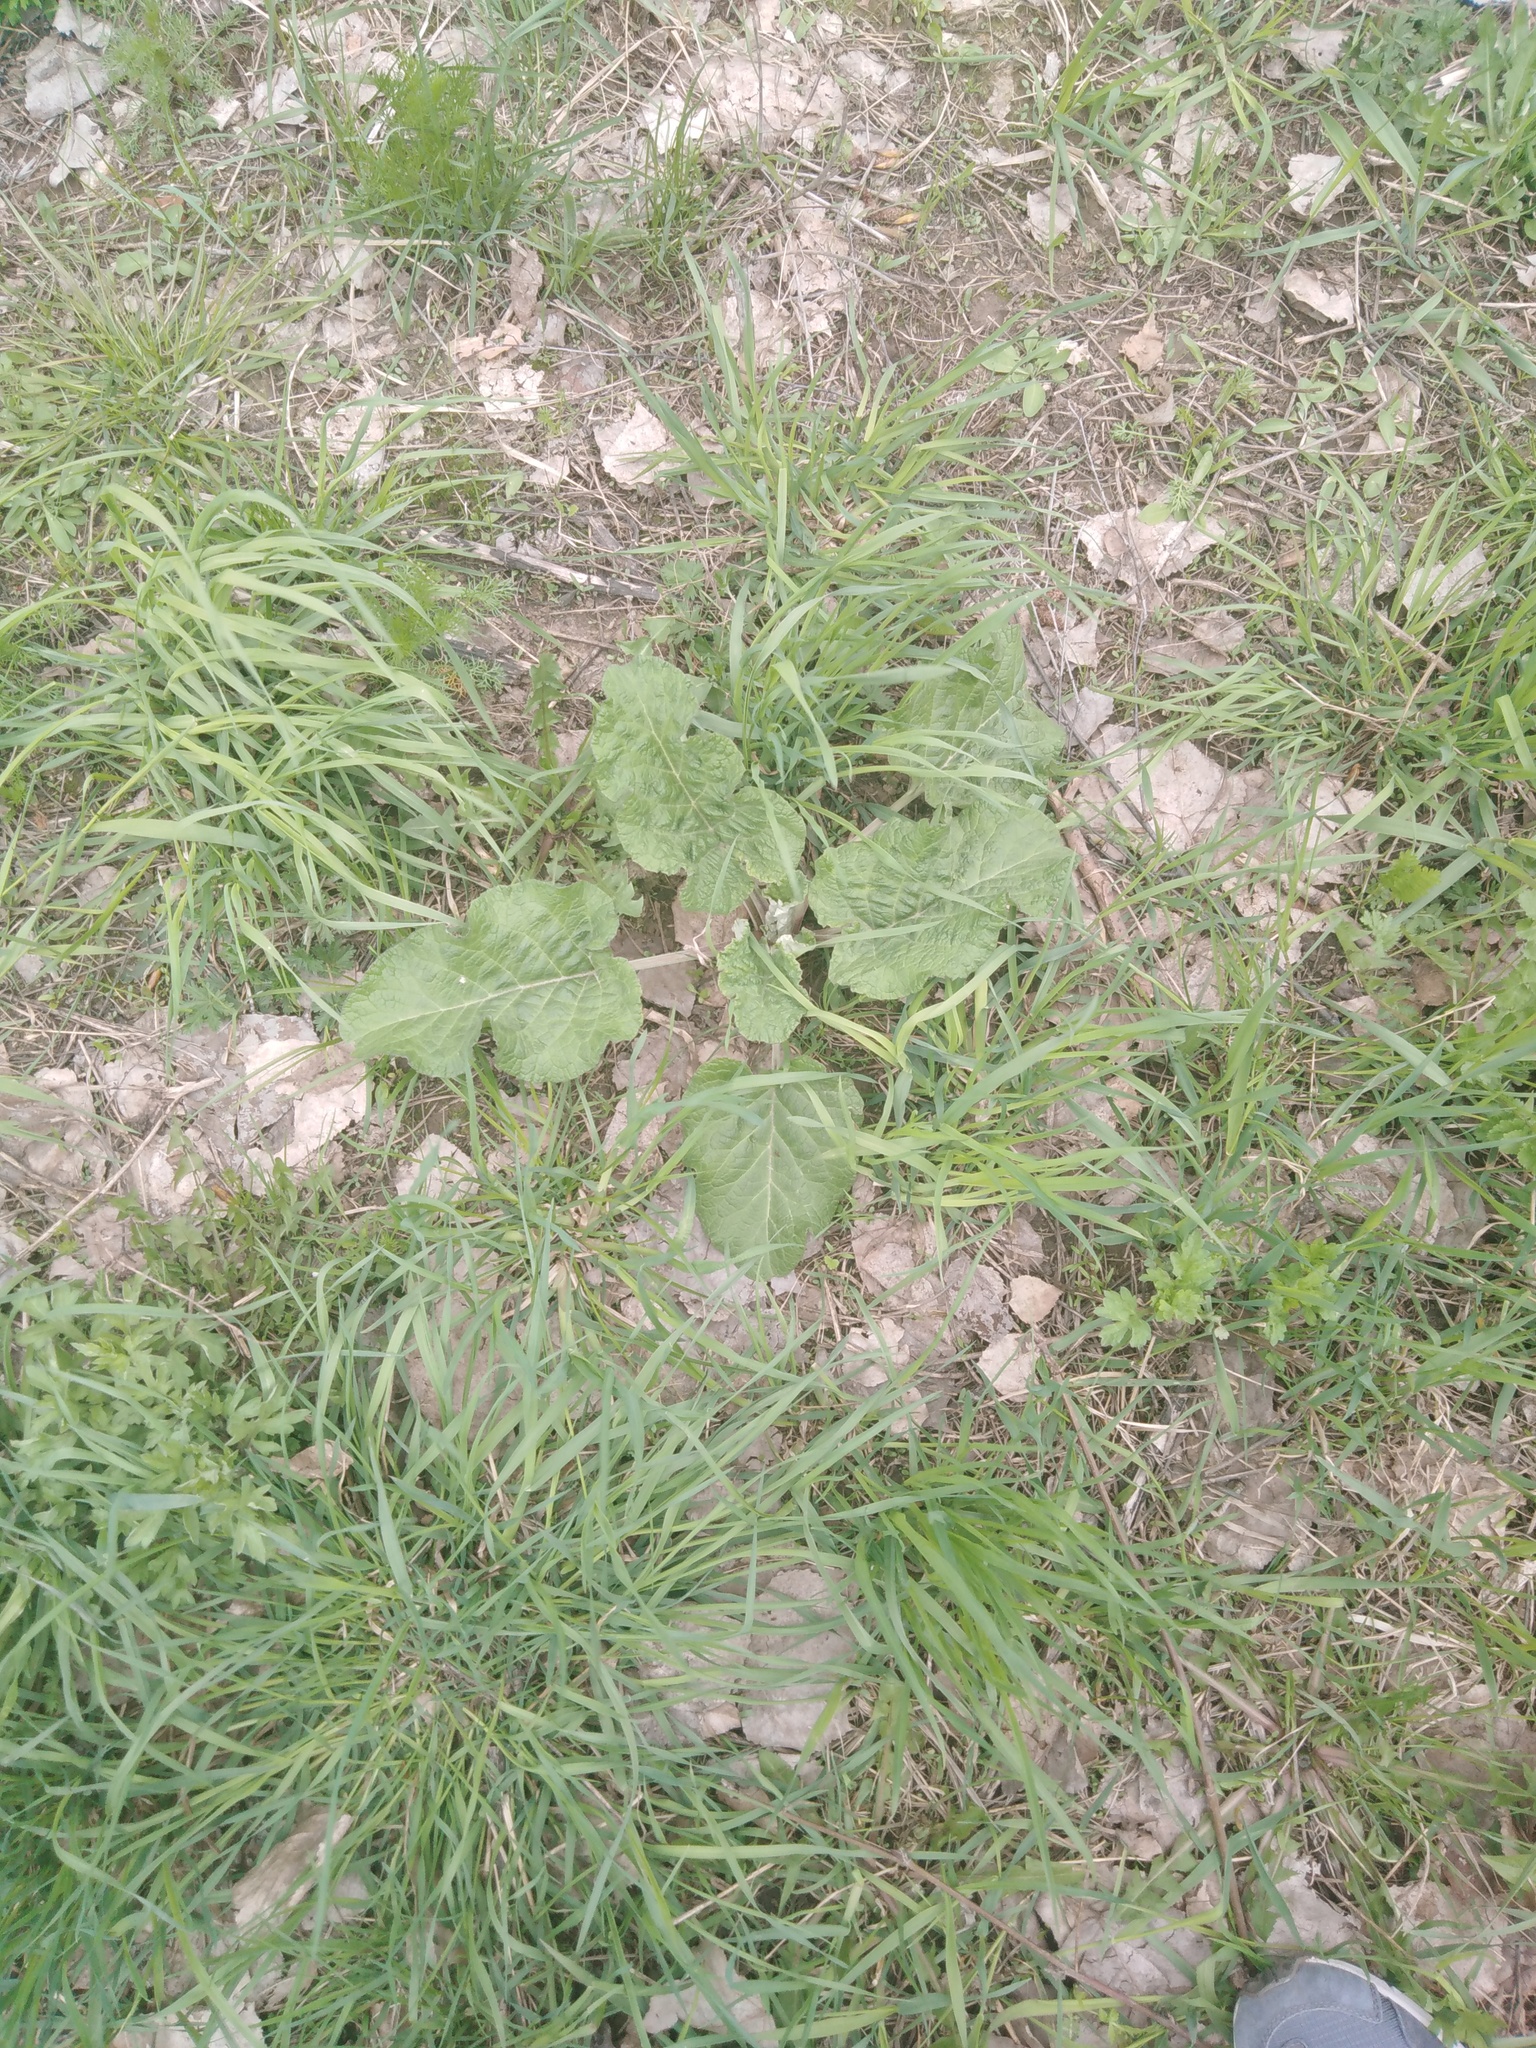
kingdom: Plantae
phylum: Tracheophyta
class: Magnoliopsida
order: Asterales
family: Asteraceae
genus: Arctium
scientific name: Arctium
